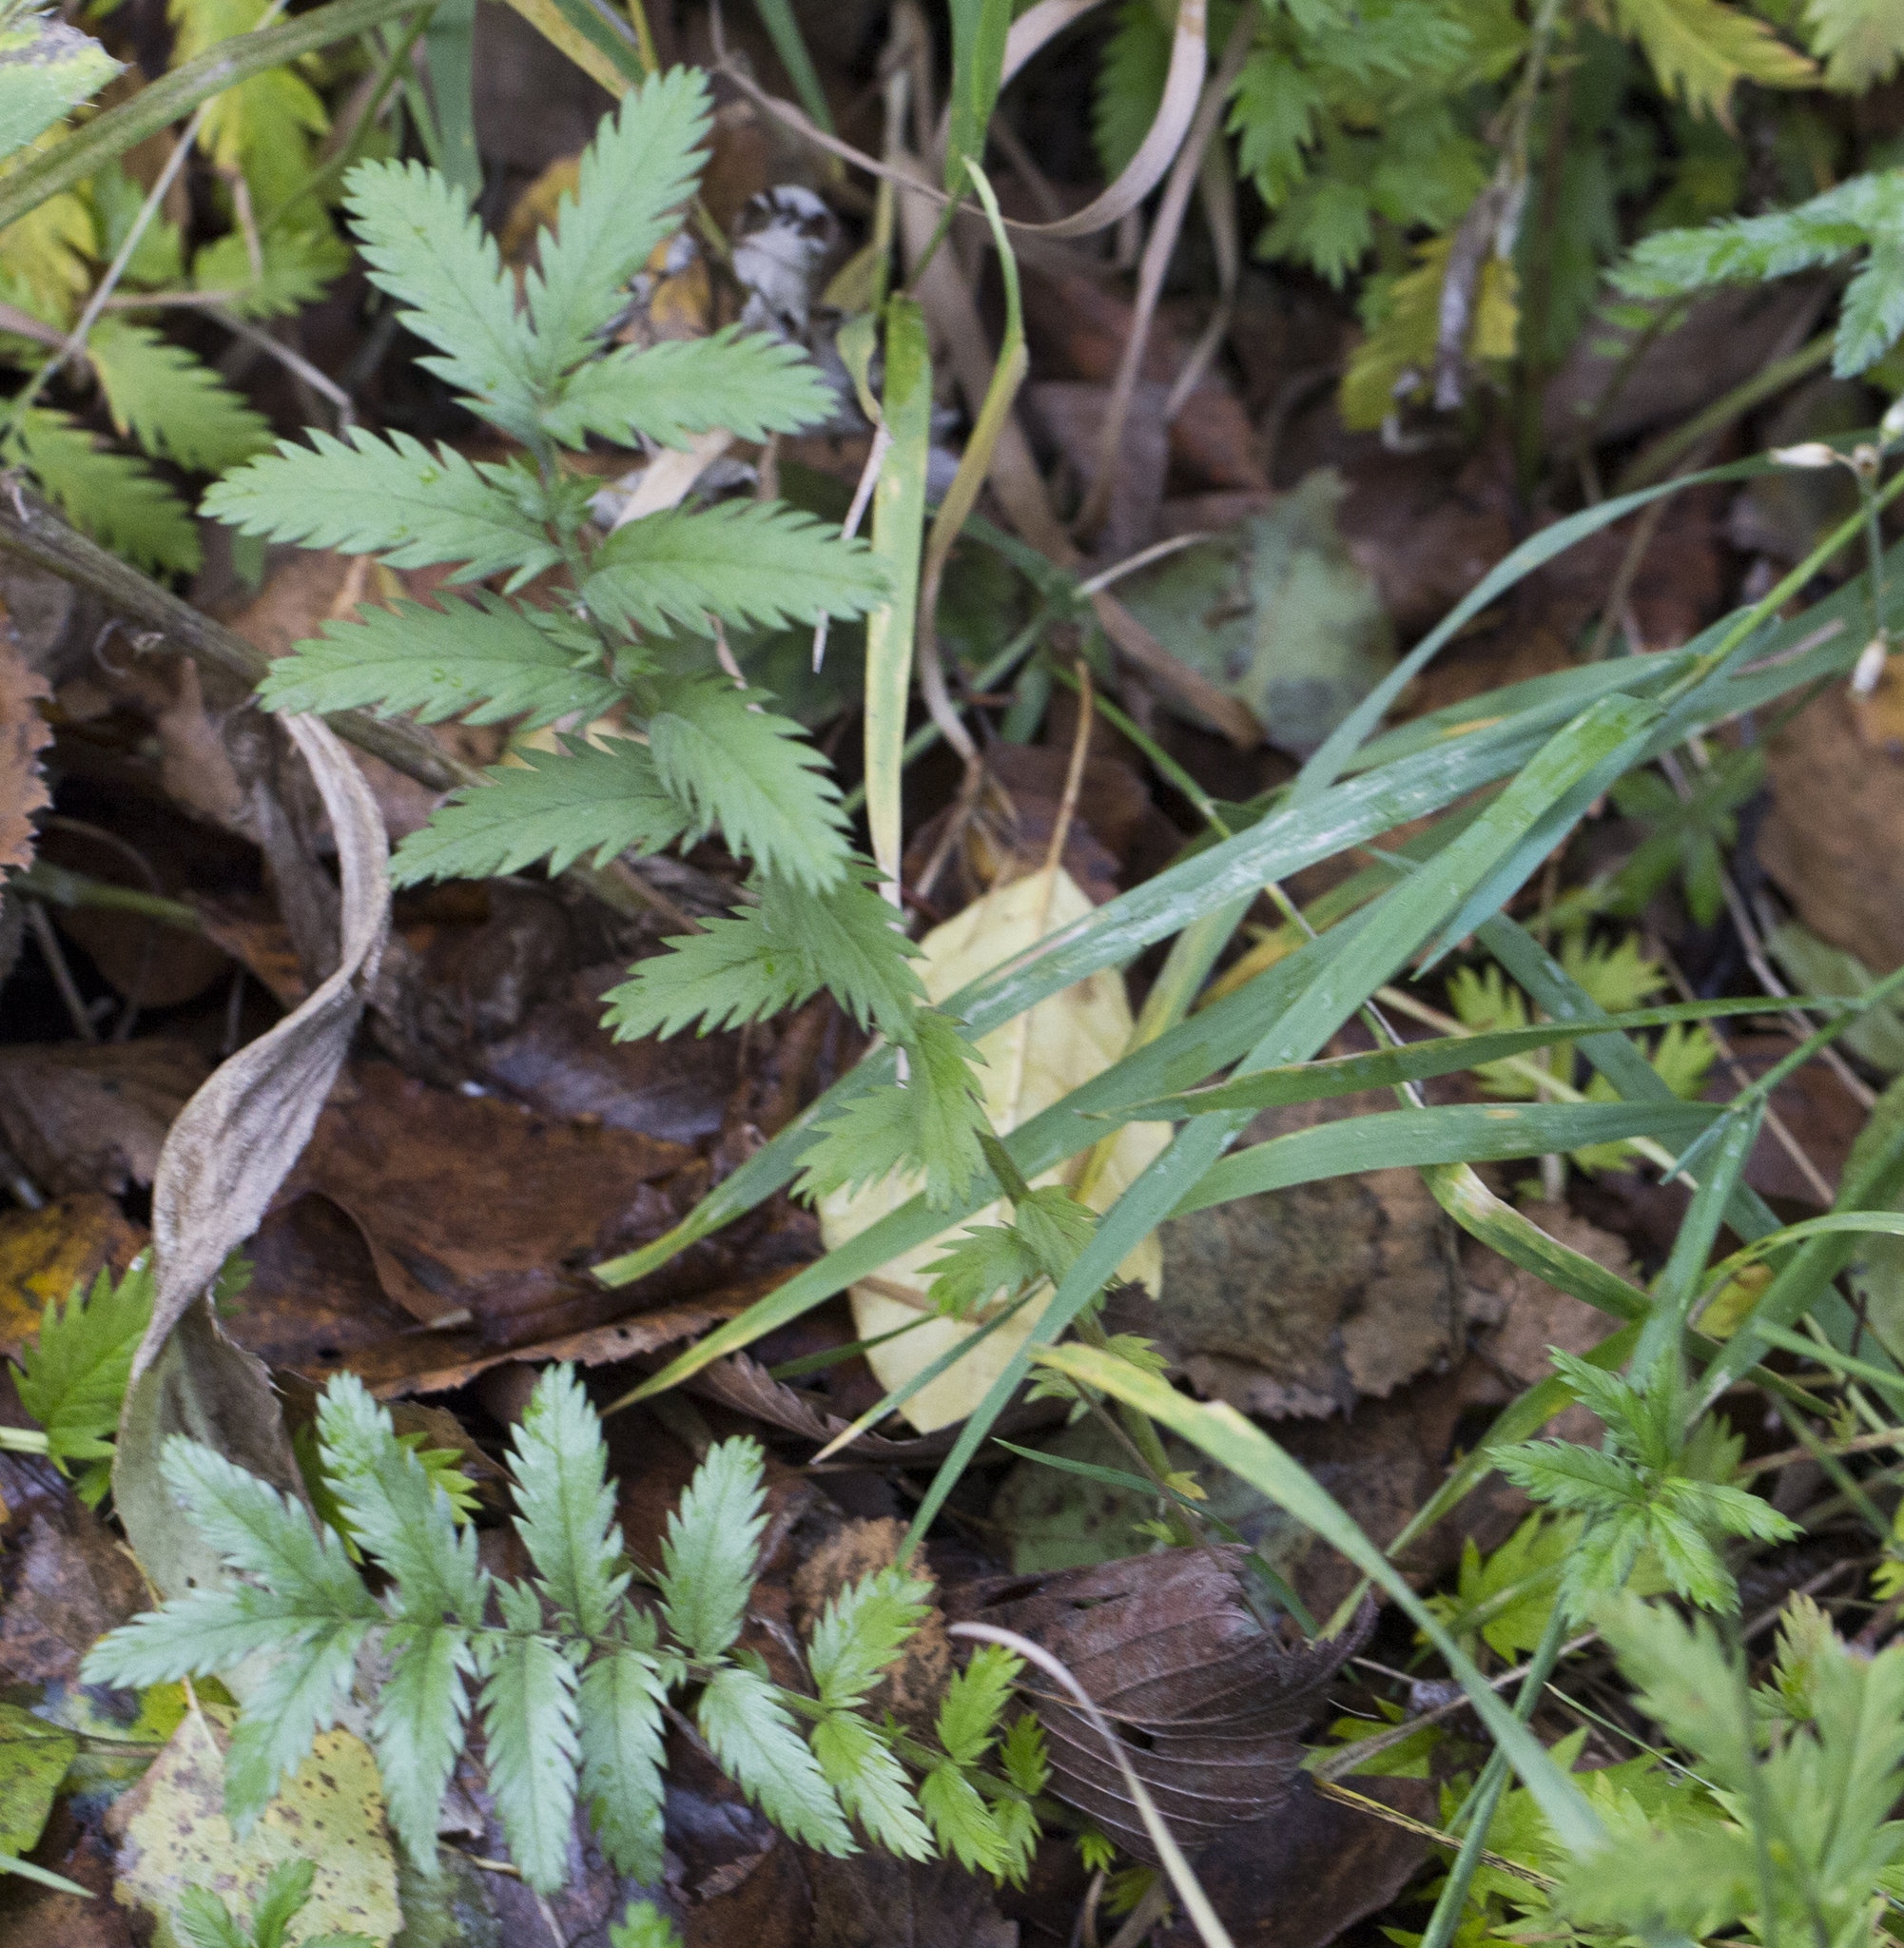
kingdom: Plantae
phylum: Tracheophyta
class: Magnoliopsida
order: Rosales
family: Rosaceae
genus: Argentina
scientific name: Argentina anserina
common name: Common silverweed
